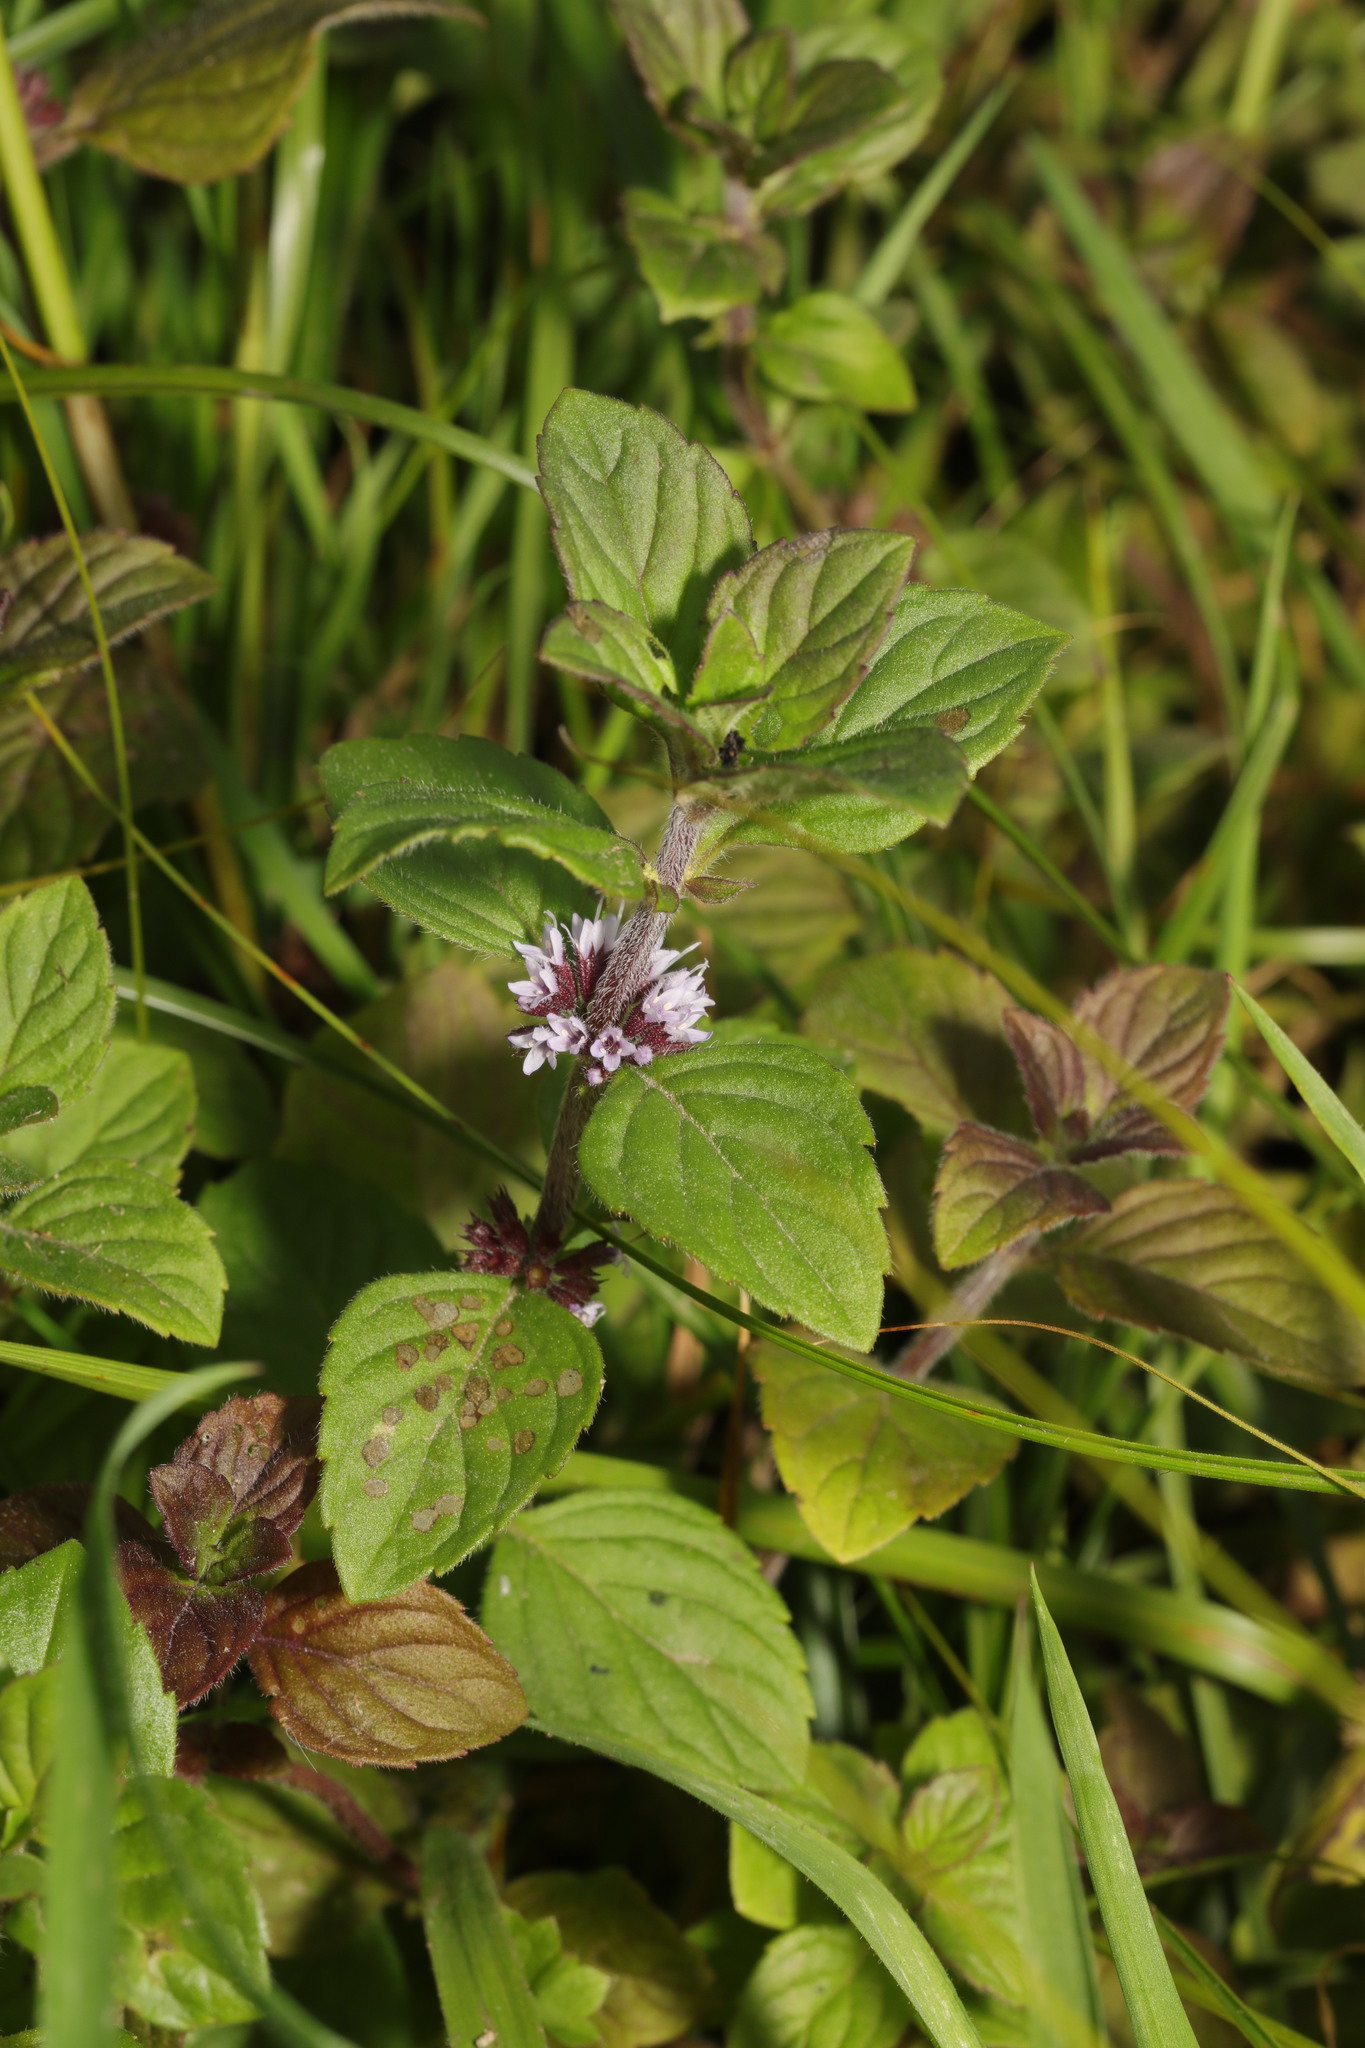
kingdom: Plantae
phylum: Tracheophyta
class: Magnoliopsida
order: Lamiales
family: Lamiaceae
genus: Mentha
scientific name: Mentha verticillata
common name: Mint
